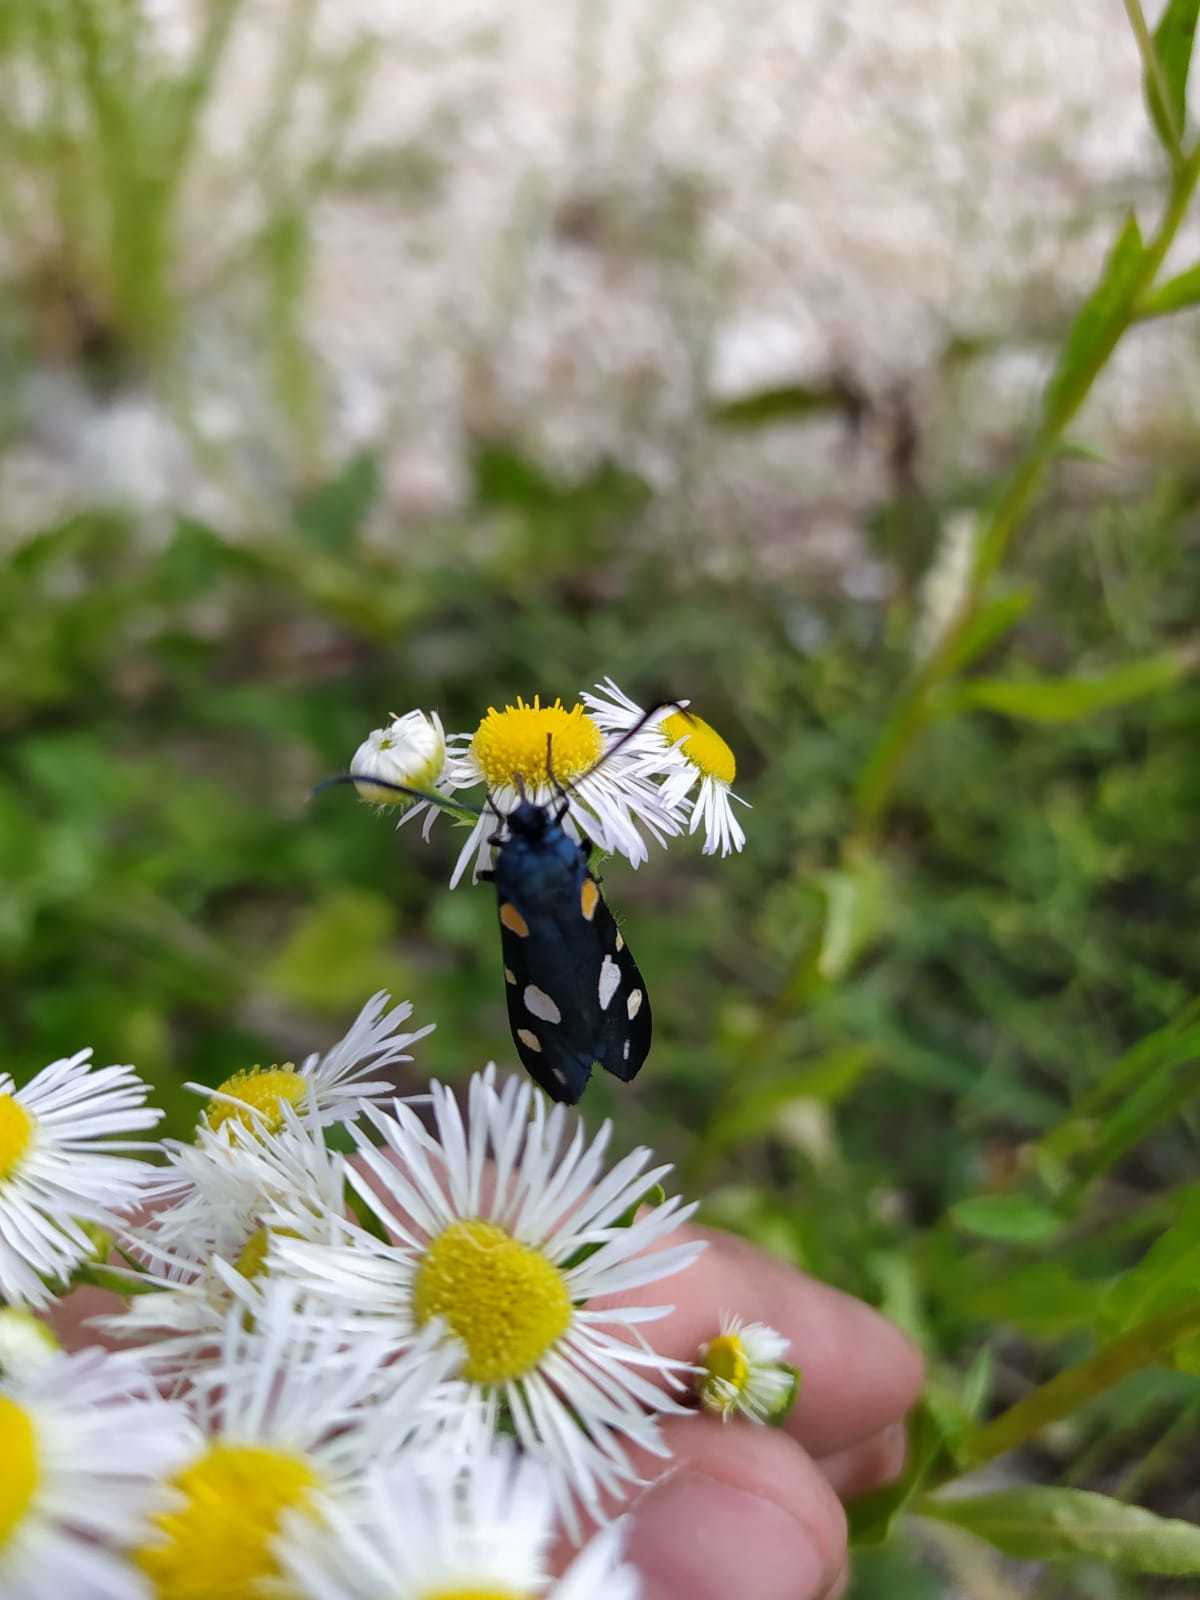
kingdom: Animalia
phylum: Arthropoda
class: Insecta
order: Lepidoptera
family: Zygaenidae
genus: Zygaena
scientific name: Zygaena ephialtes
